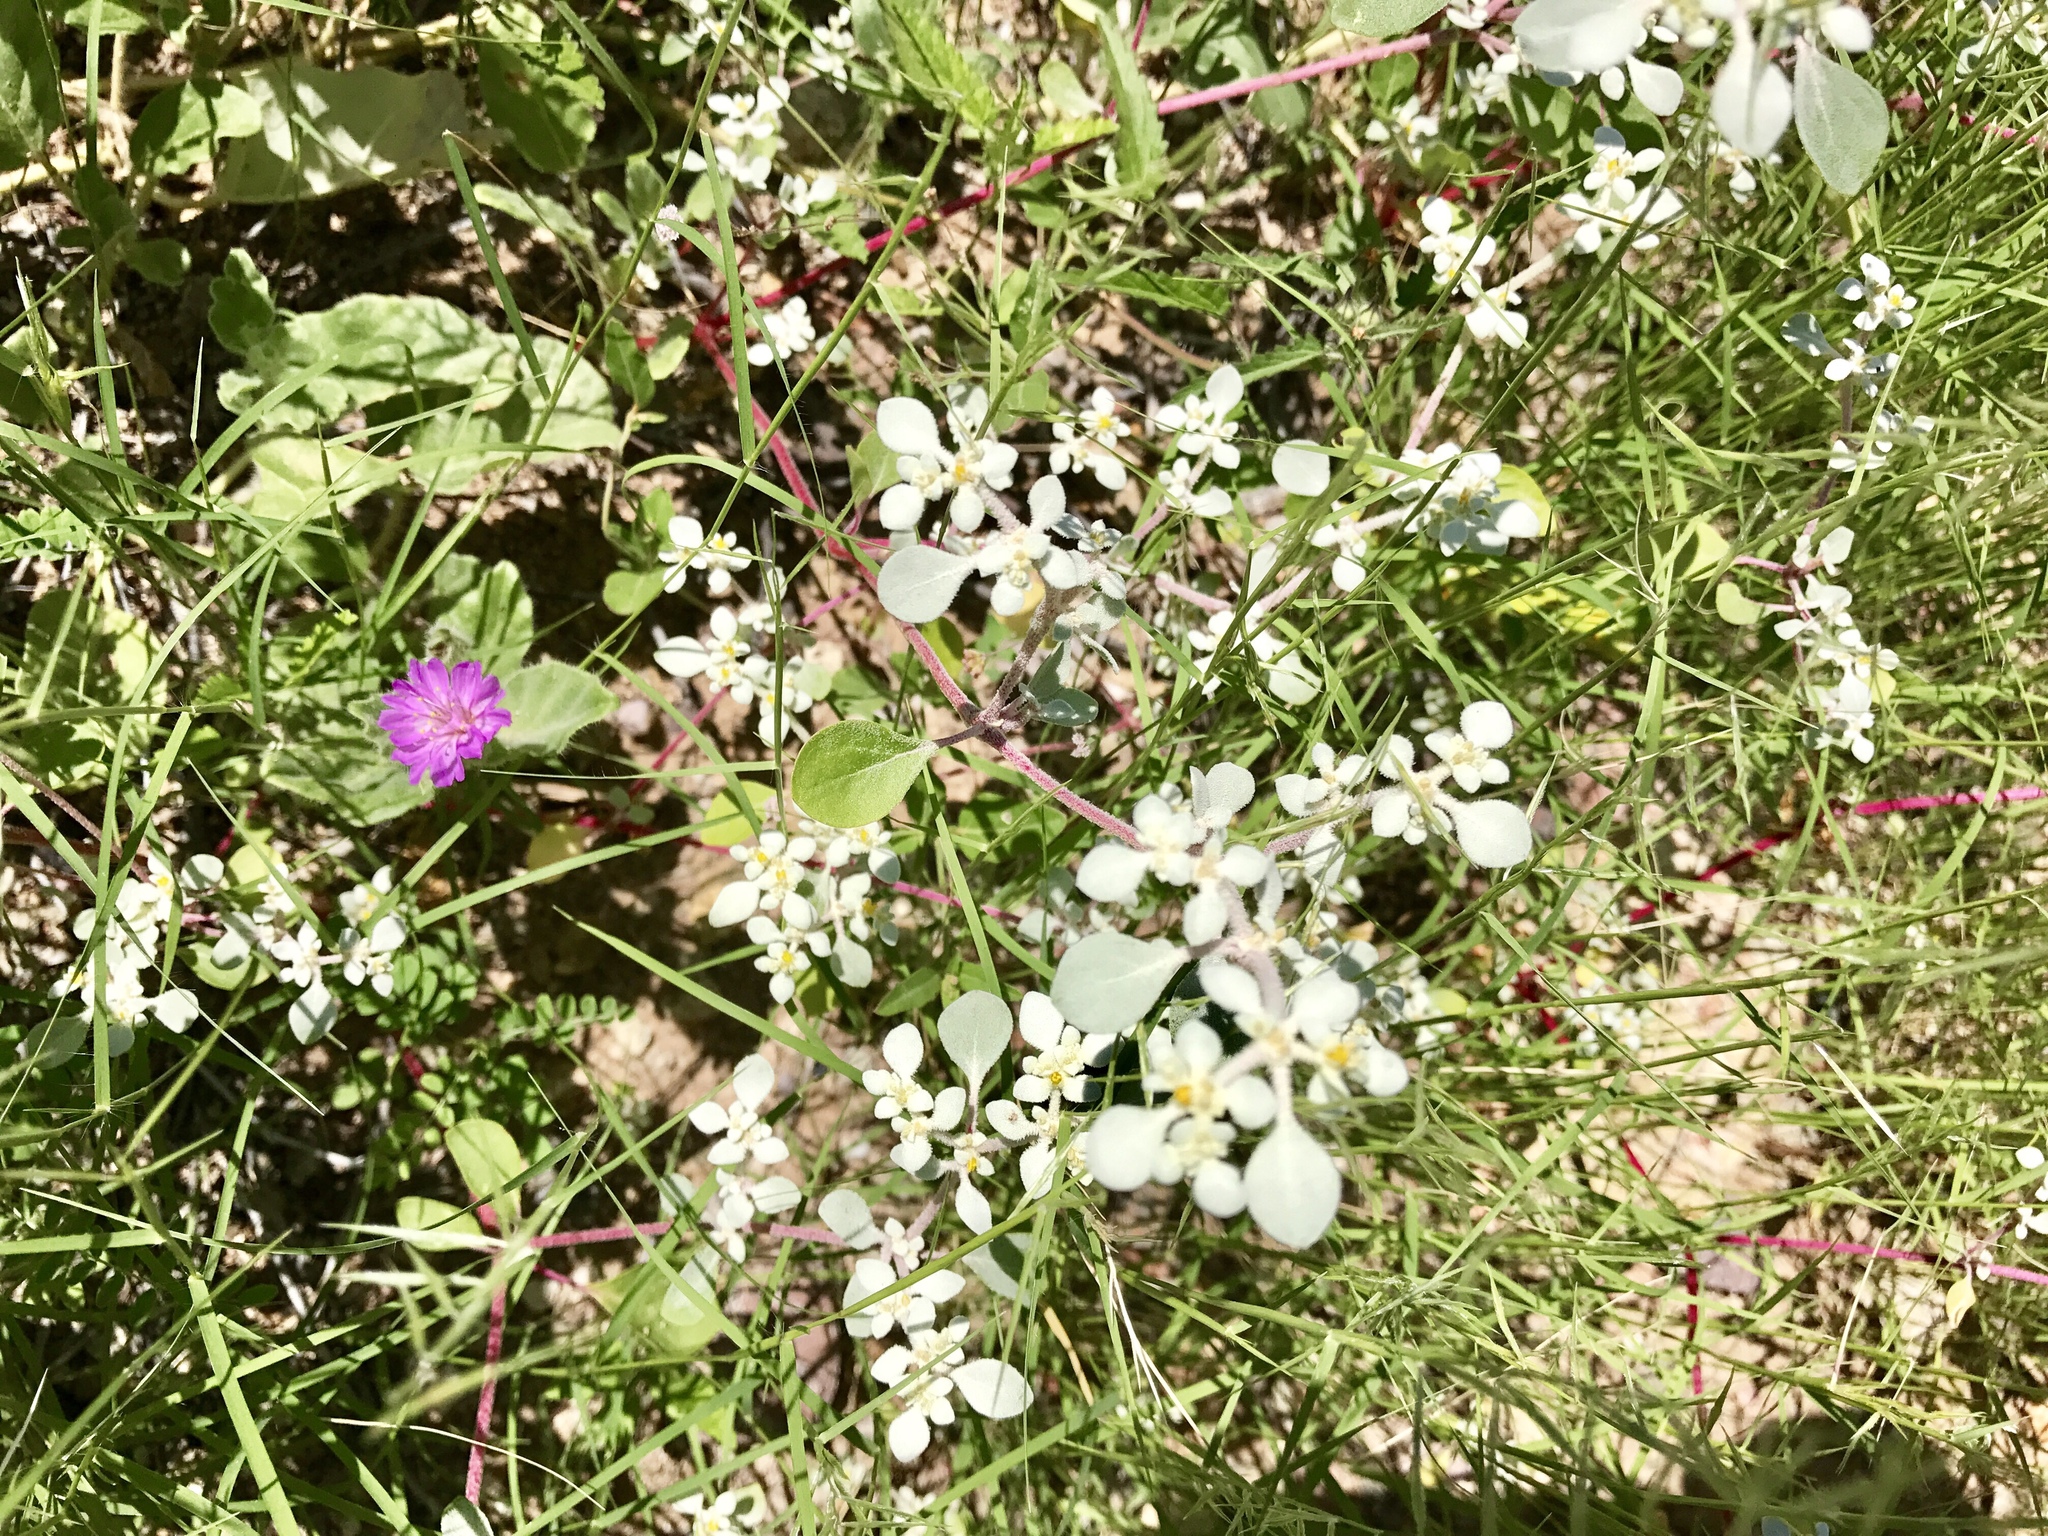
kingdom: Plantae
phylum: Tracheophyta
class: Magnoliopsida
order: Caryophyllales
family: Amaranthaceae
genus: Tidestromia
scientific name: Tidestromia lanuginosa
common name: Woolly tidestromia
